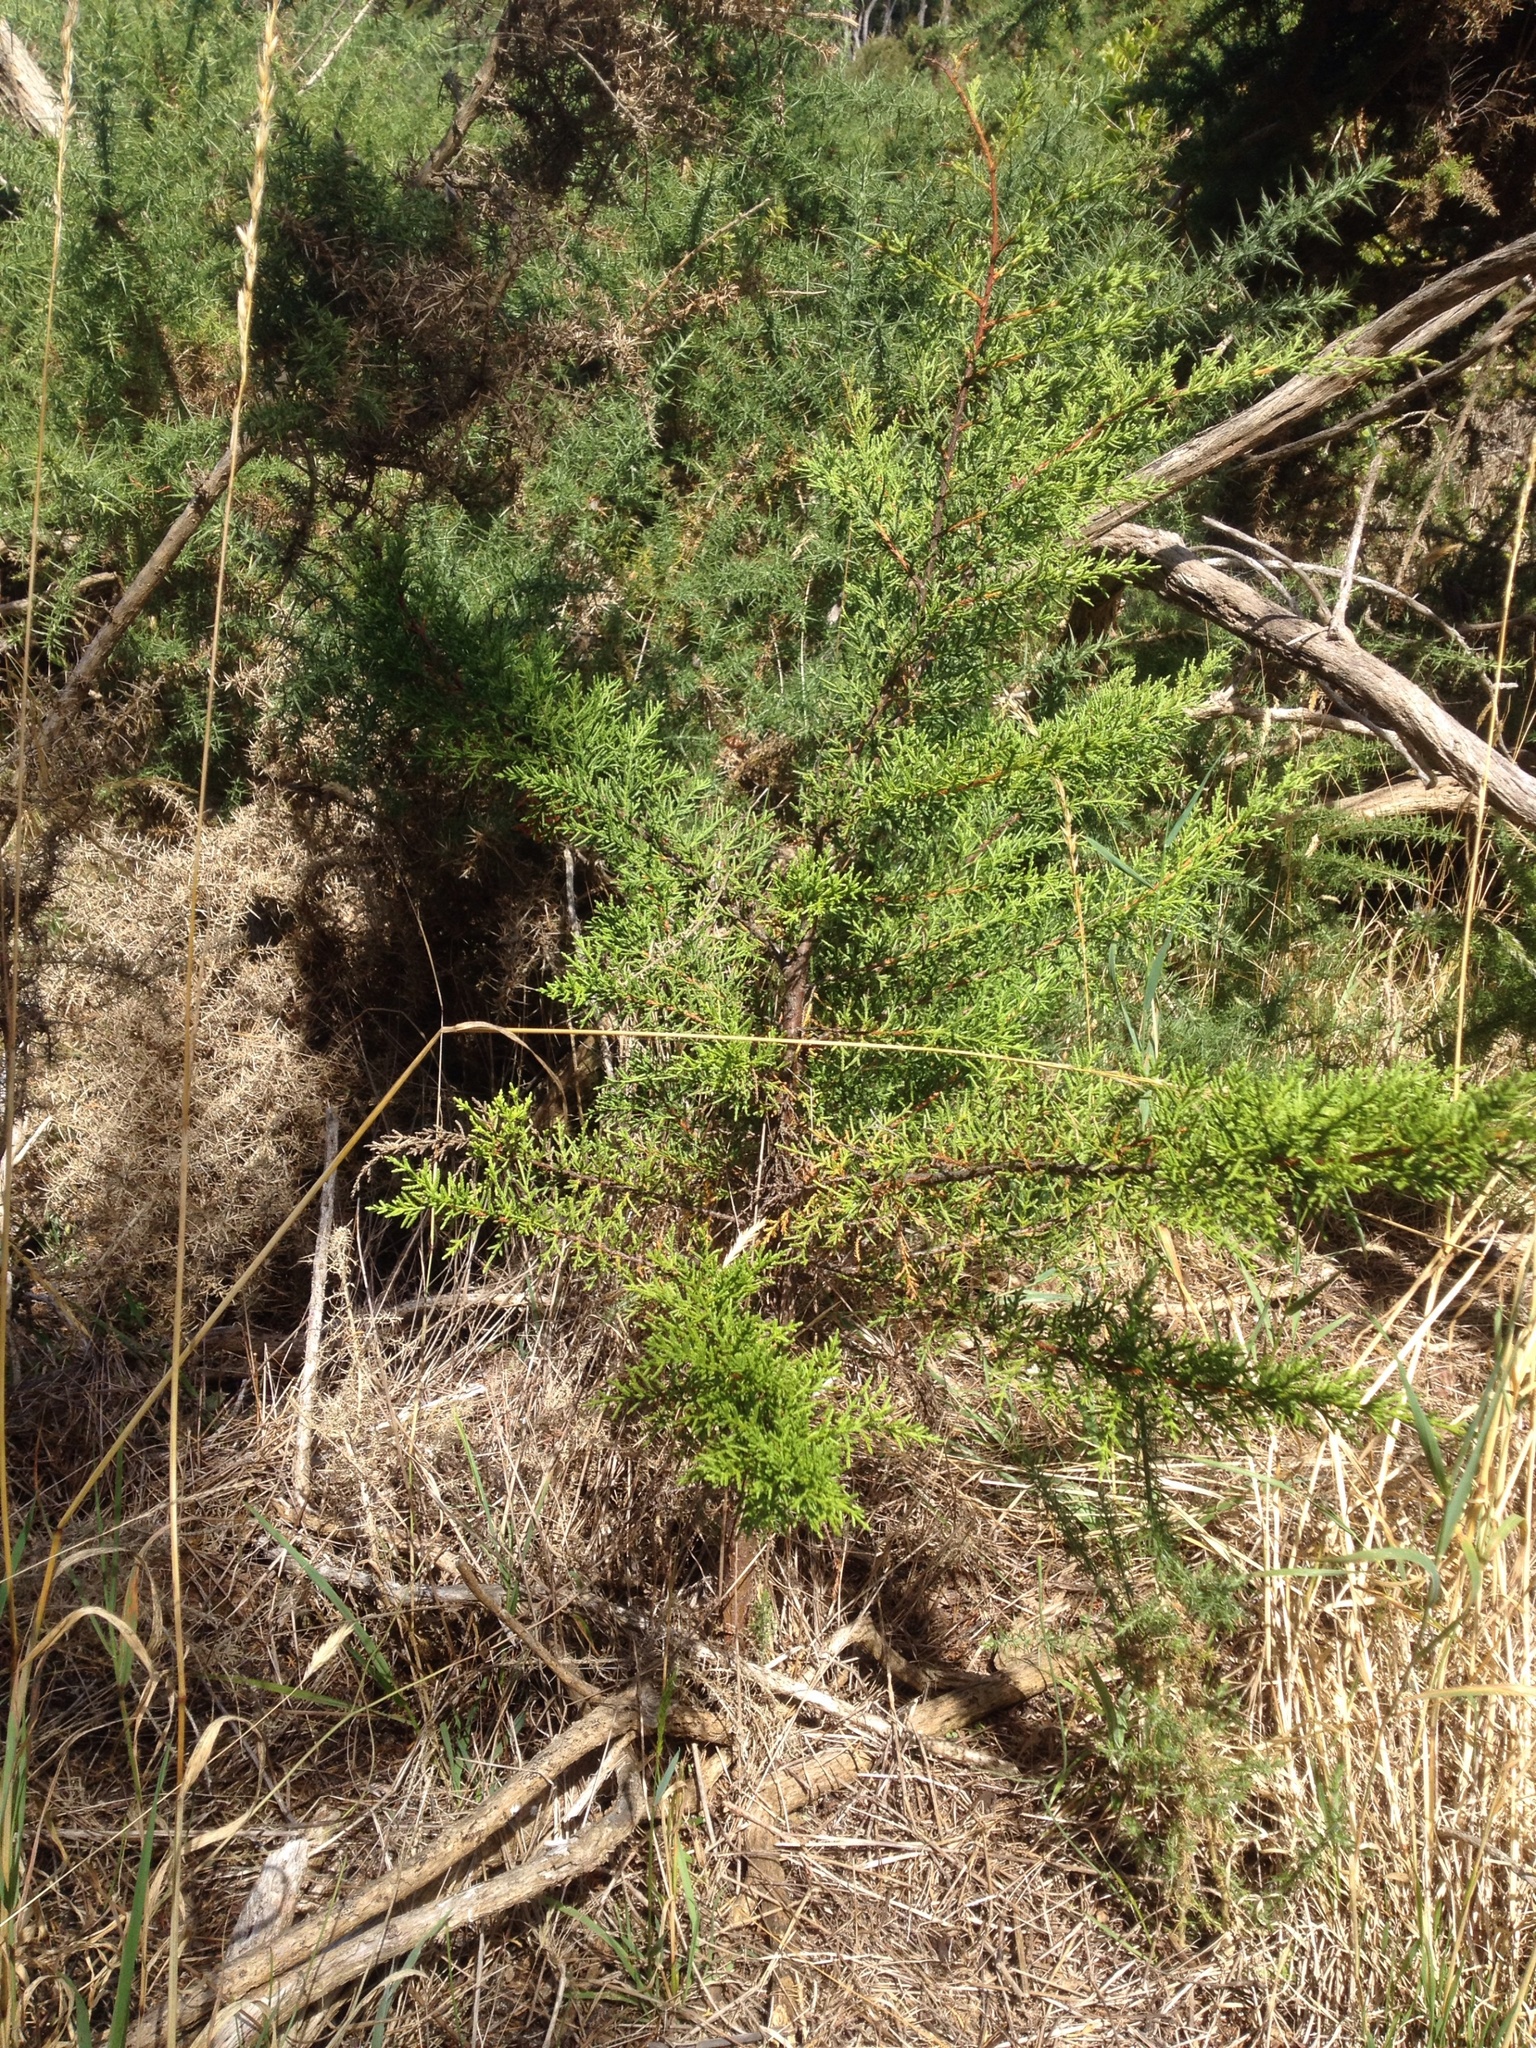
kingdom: Plantae
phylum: Tracheophyta
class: Pinopsida
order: Pinales
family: Cupressaceae
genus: Cupressus
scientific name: Cupressus macrocarpa
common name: Monterey cypress
